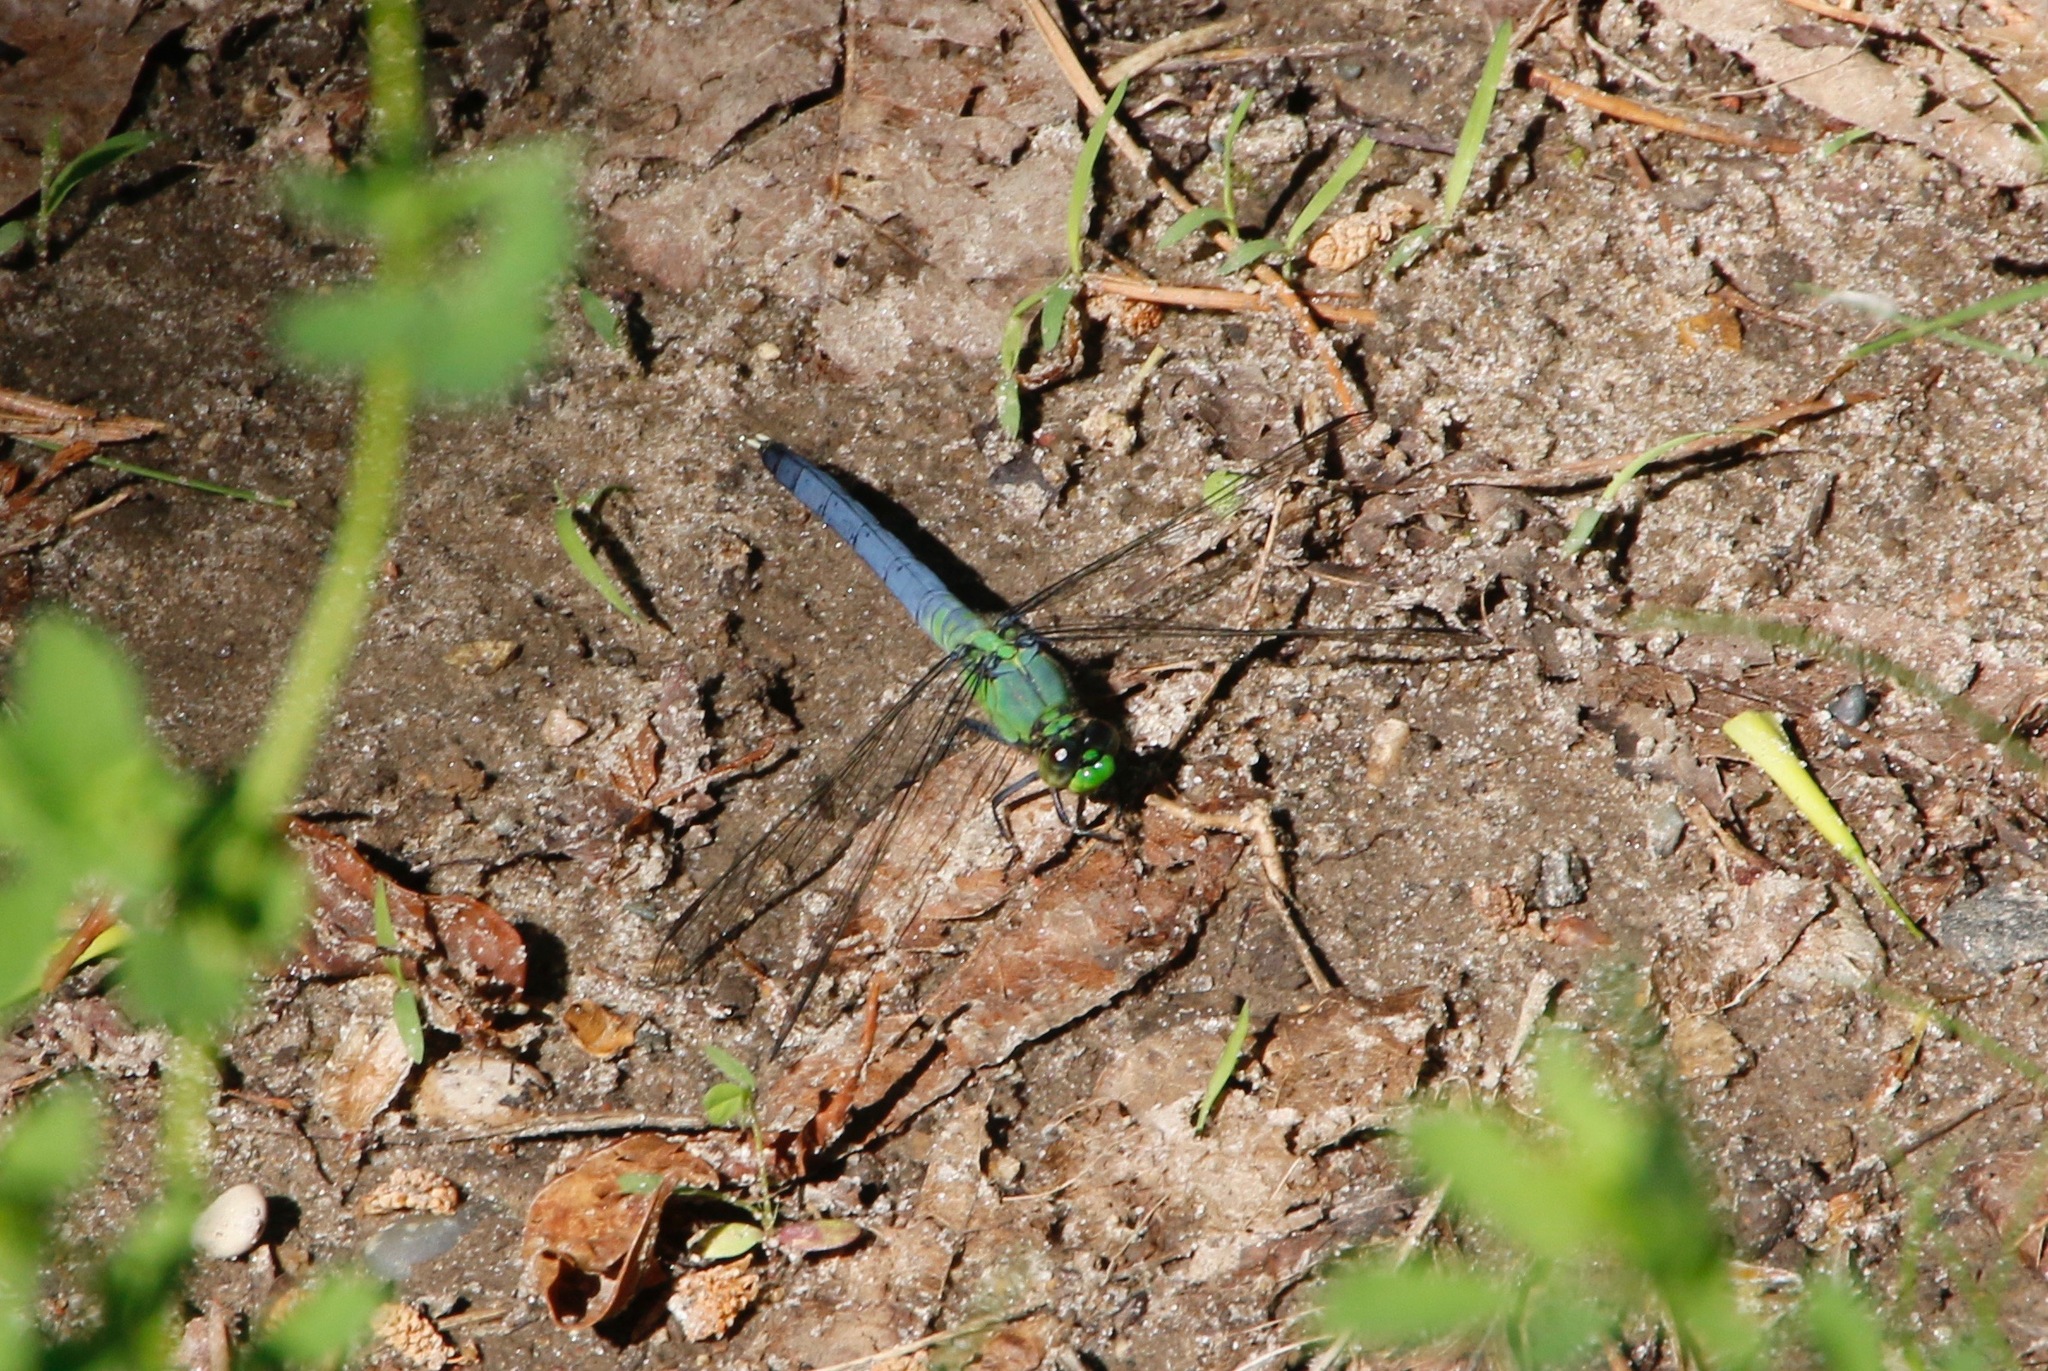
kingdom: Animalia
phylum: Arthropoda
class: Insecta
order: Odonata
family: Libellulidae
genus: Erythemis
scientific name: Erythemis simplicicollis
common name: Eastern pondhawk
